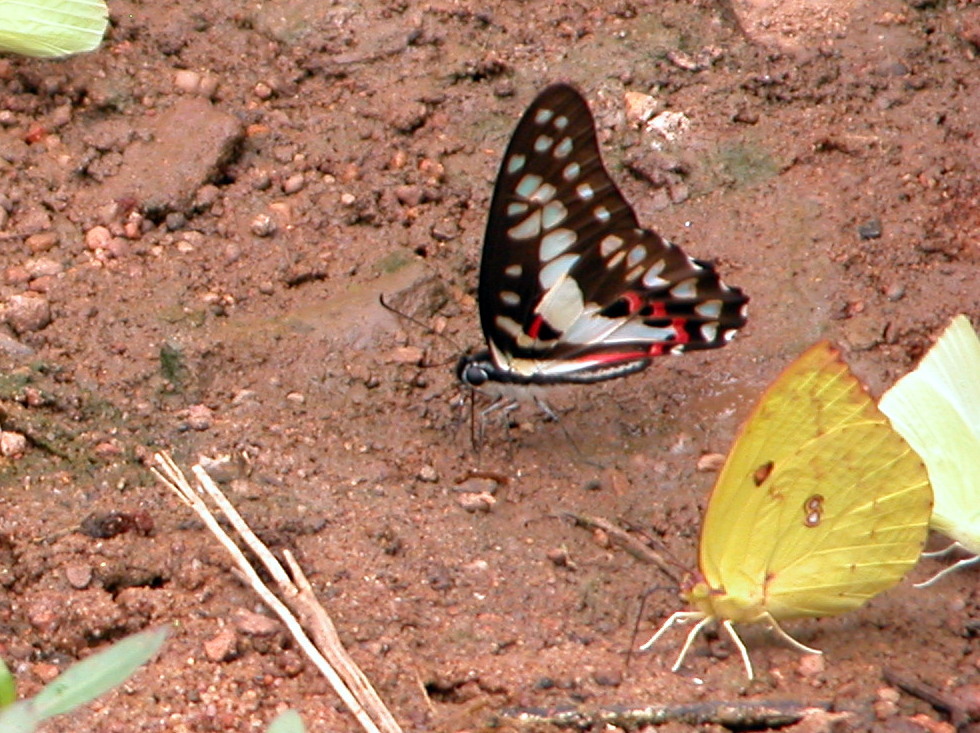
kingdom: Animalia
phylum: Arthropoda
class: Insecta
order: Lepidoptera
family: Papilionidae
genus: Graphium
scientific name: Graphium doson
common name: Common jay
